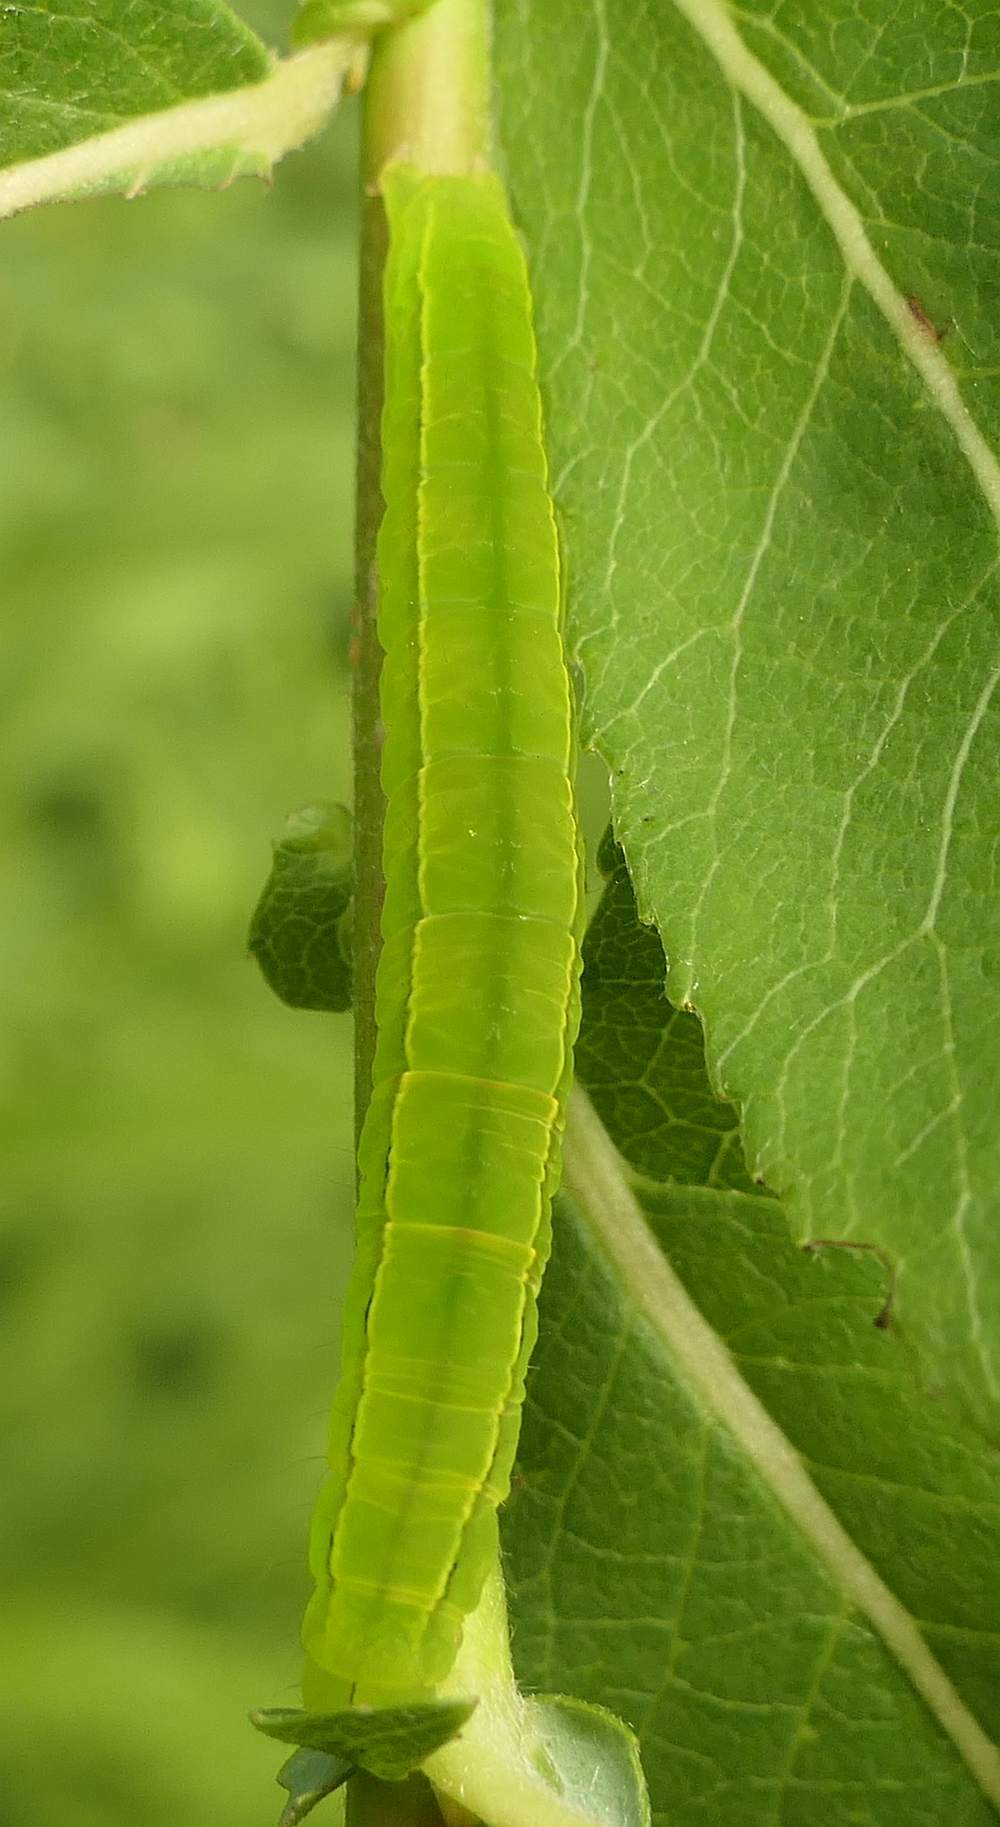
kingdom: Animalia
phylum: Arthropoda
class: Insecta
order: Lepidoptera
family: Erebidae
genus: Scoliopteryx
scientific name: Scoliopteryx libatrix
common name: Herald
